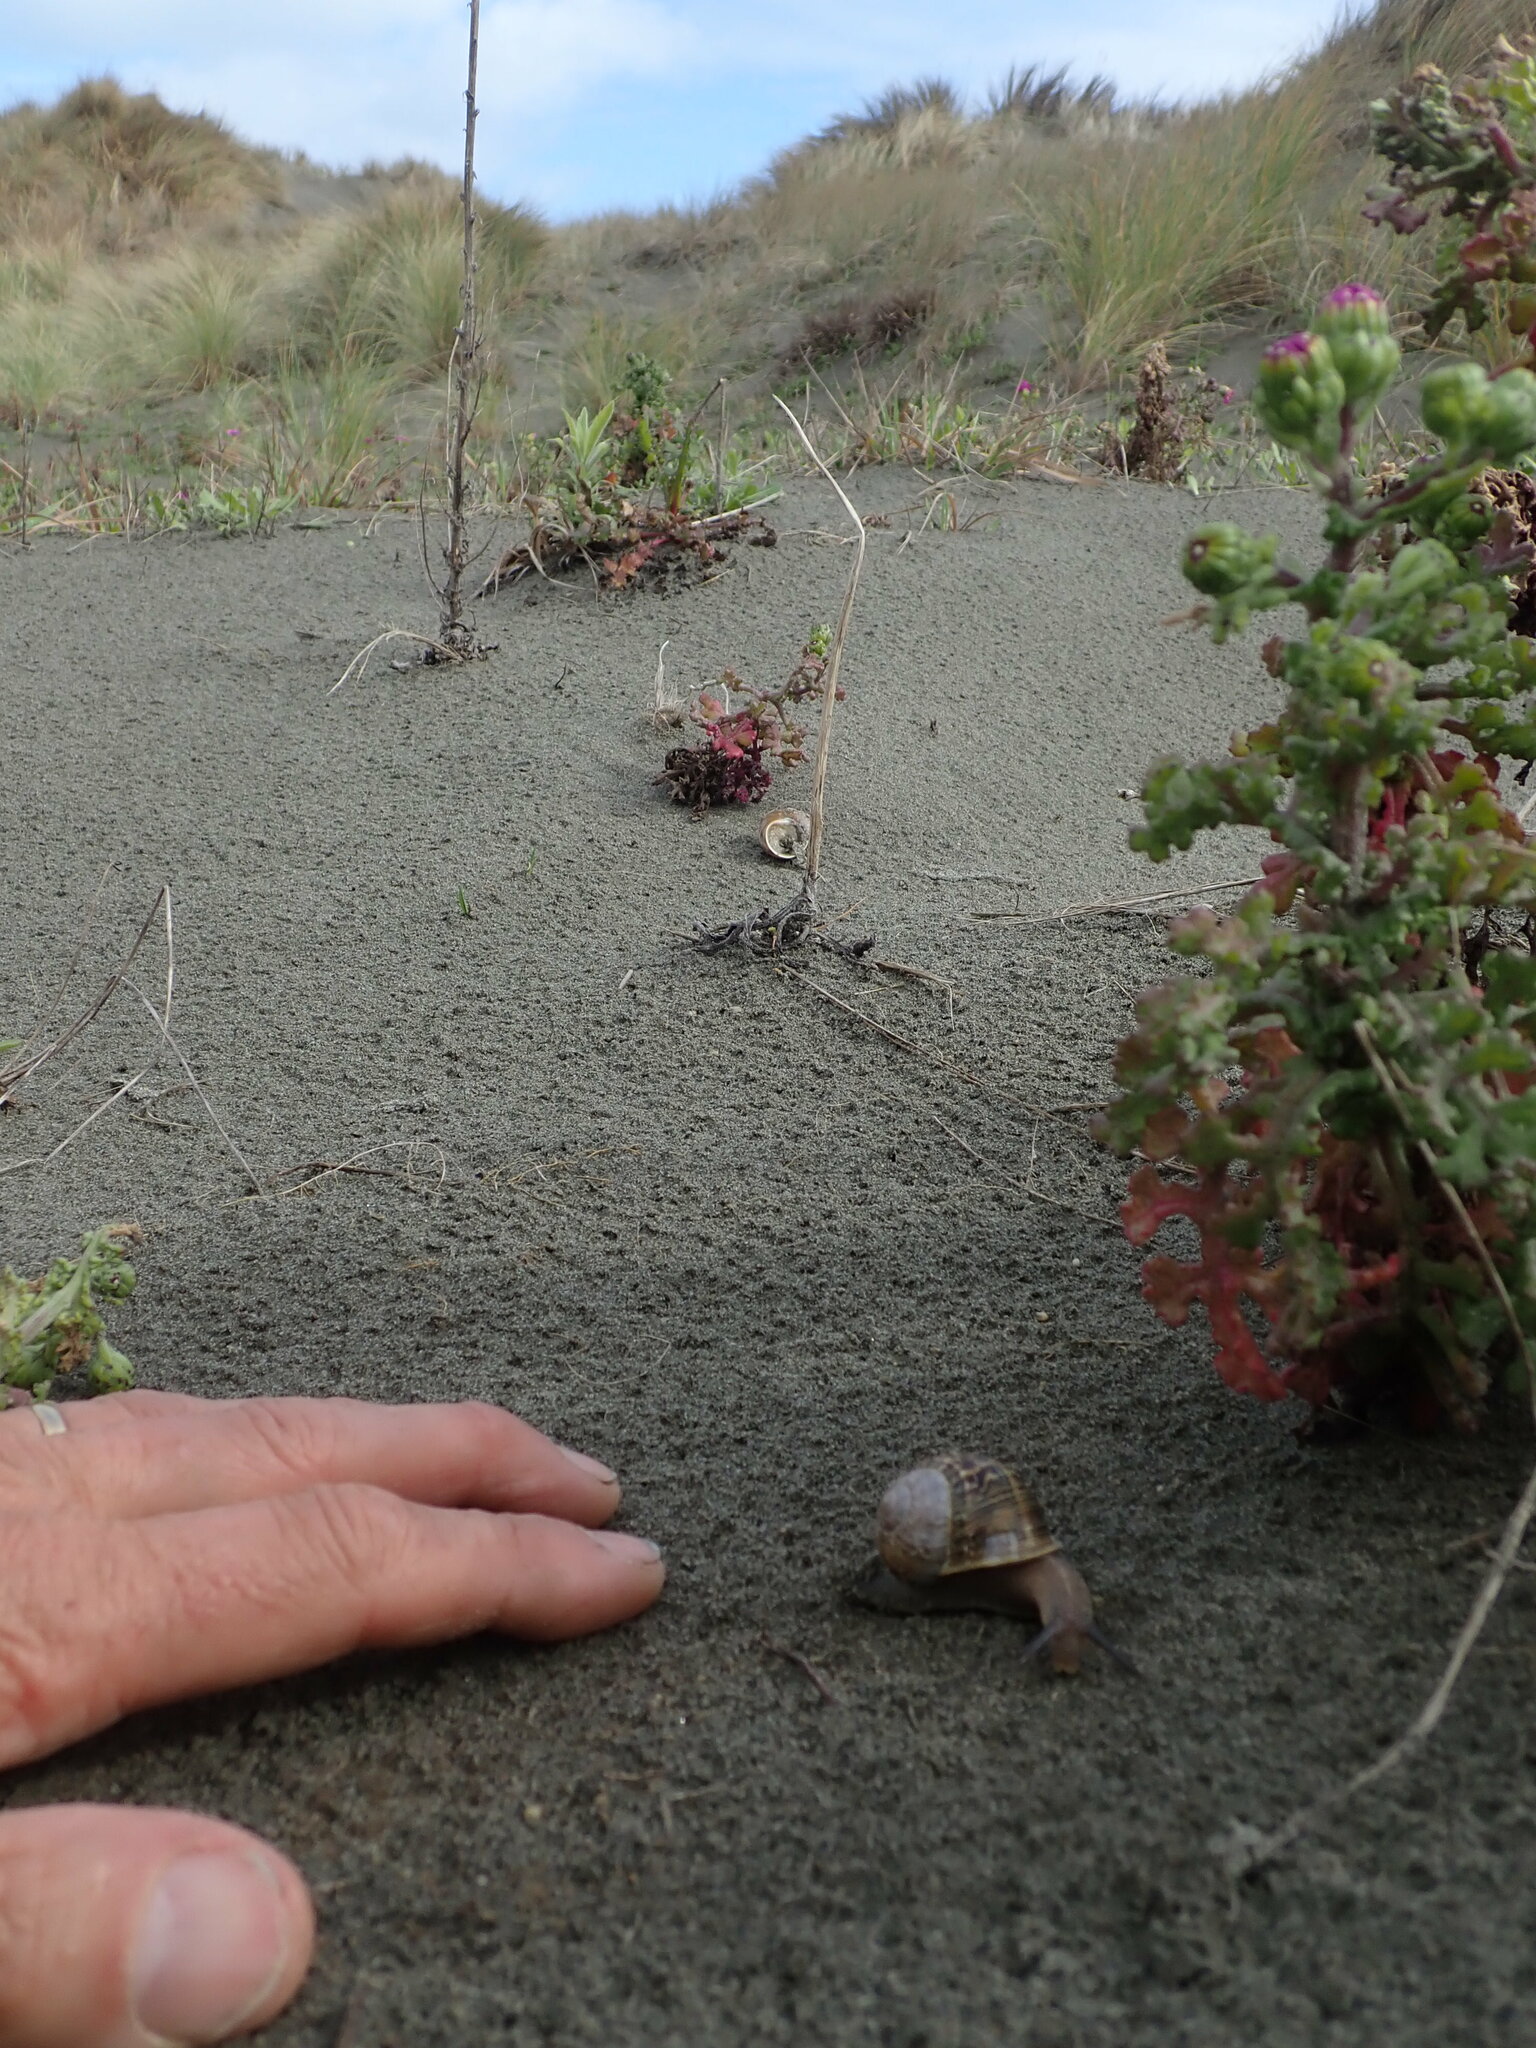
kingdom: Animalia
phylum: Mollusca
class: Gastropoda
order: Stylommatophora
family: Helicidae
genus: Cornu
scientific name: Cornu aspersum
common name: Brown garden snail
